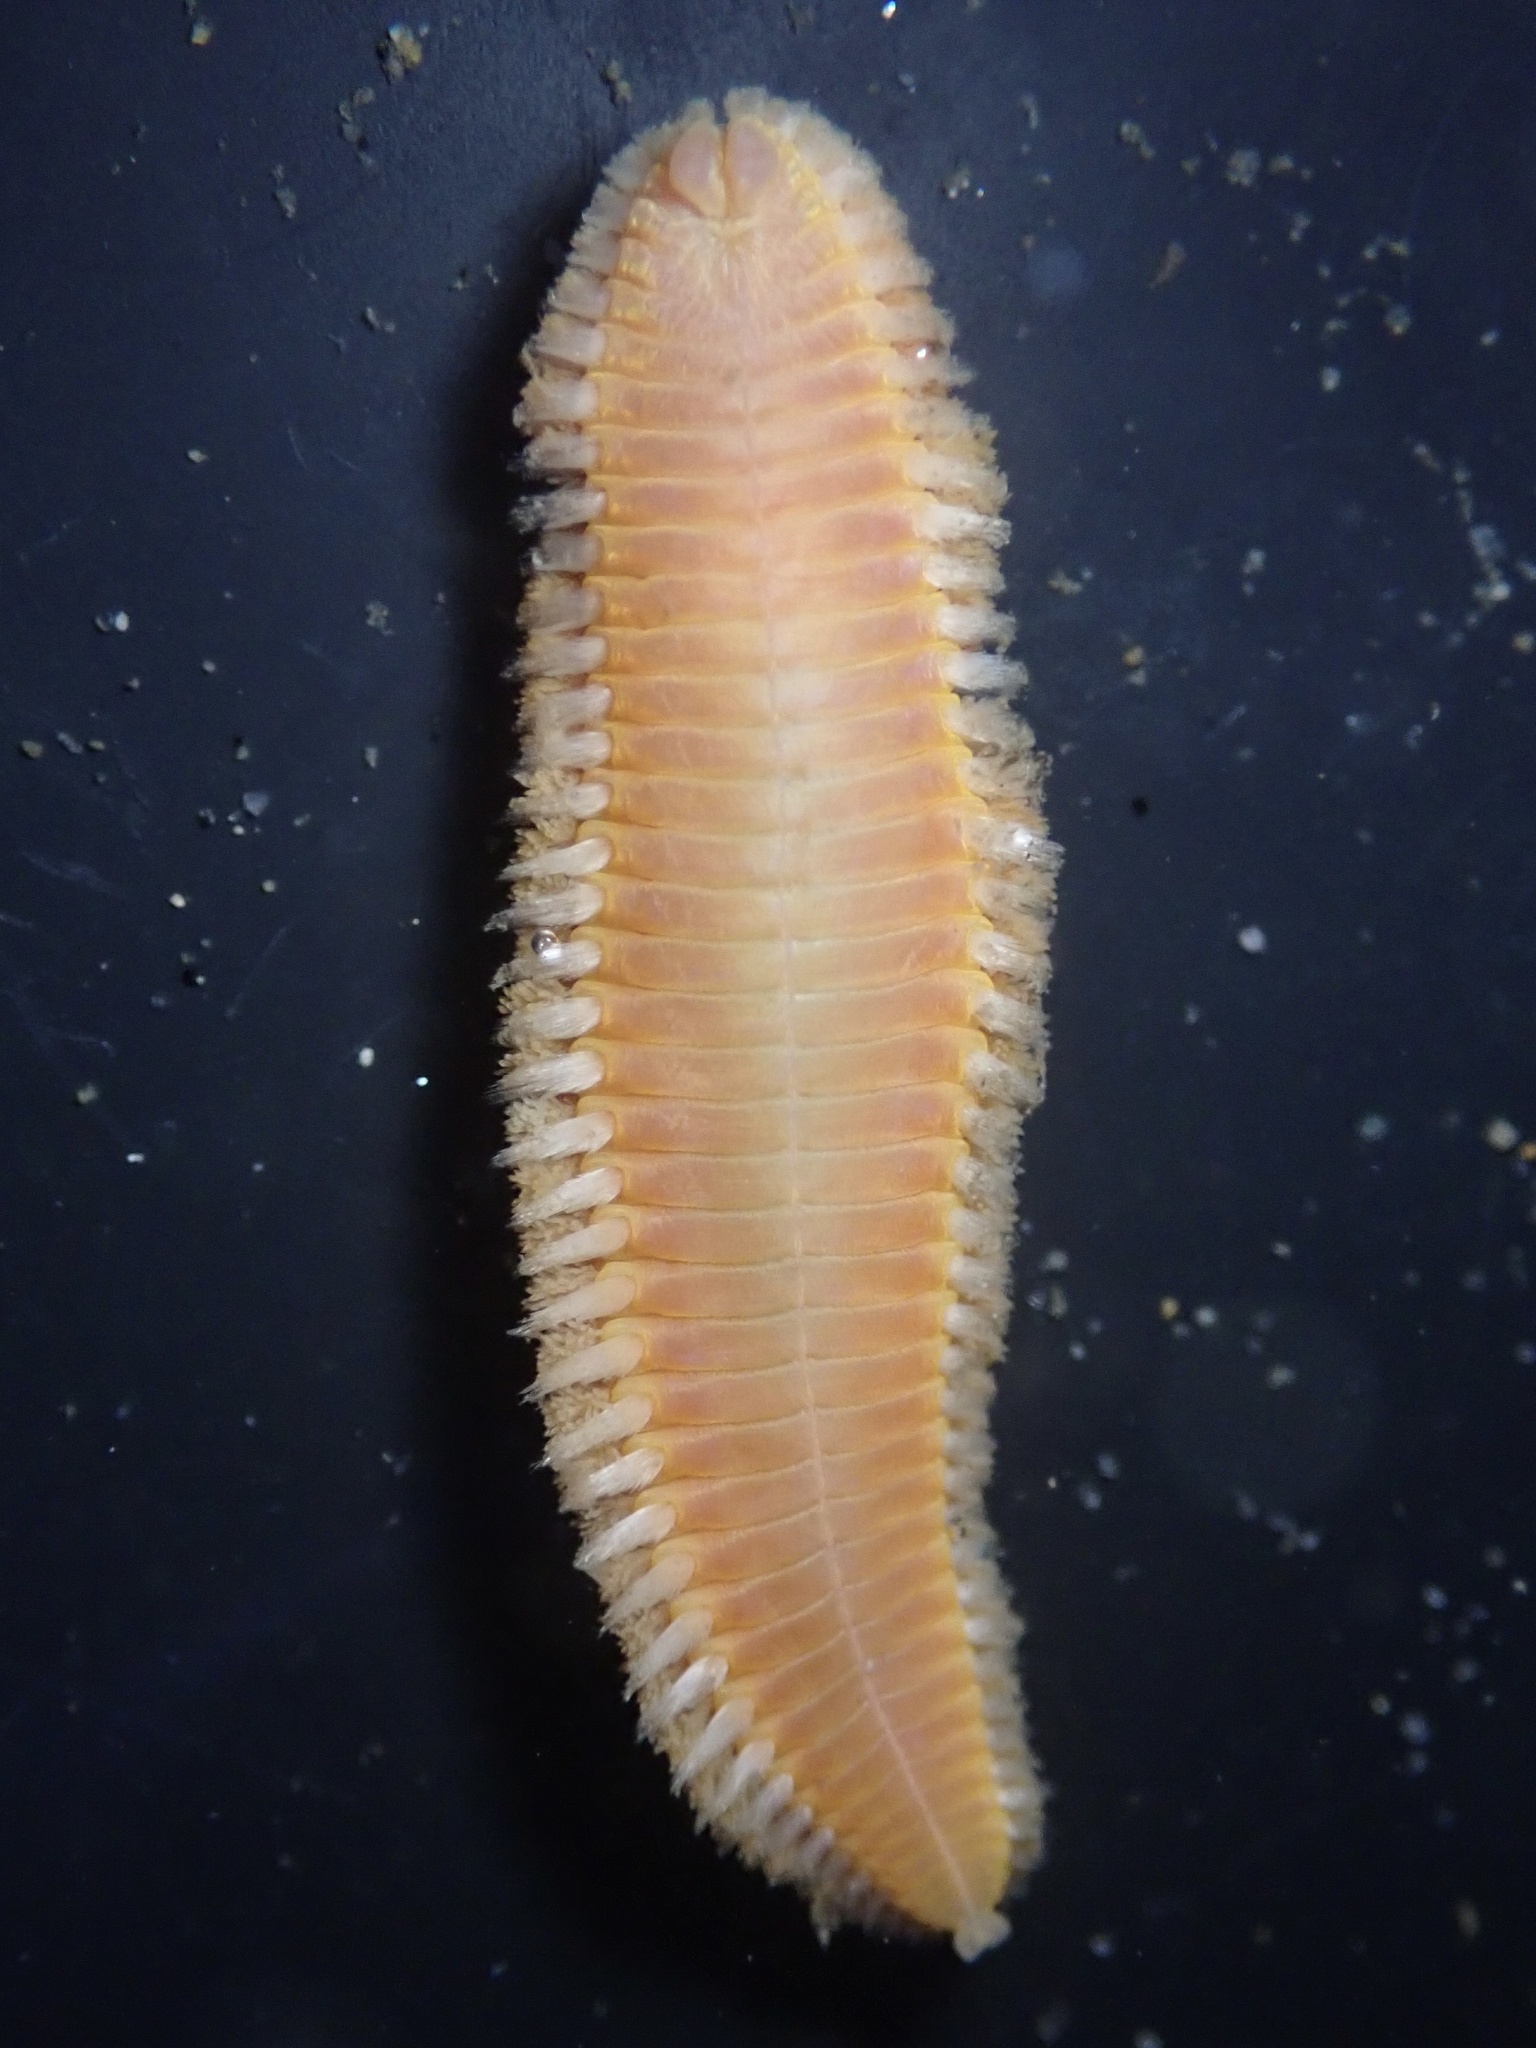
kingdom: Animalia
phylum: Annelida
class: Polychaeta
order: Amphinomida
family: Euphrosinidae
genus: Euphrosine
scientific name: Euphrosine aurantiaca
